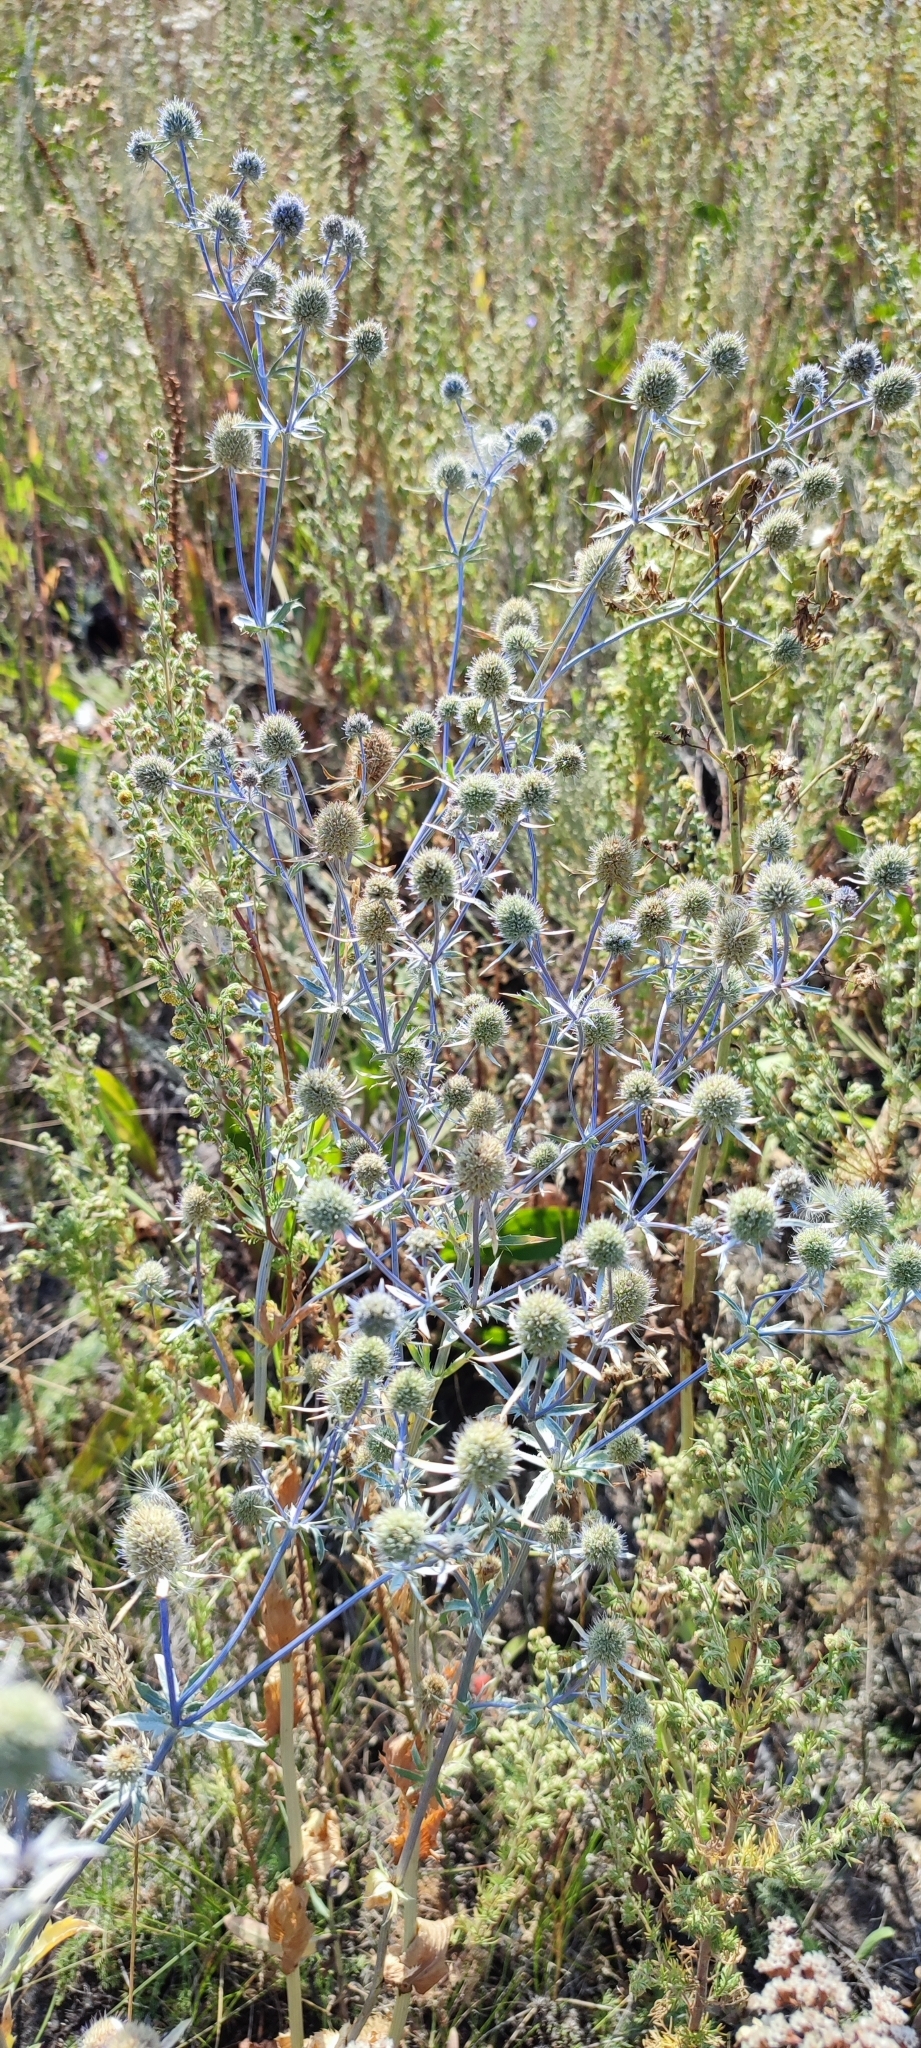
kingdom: Plantae
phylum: Tracheophyta
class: Magnoliopsida
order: Apiales
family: Apiaceae
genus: Eryngium
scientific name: Eryngium planum
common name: Blue eryngo
